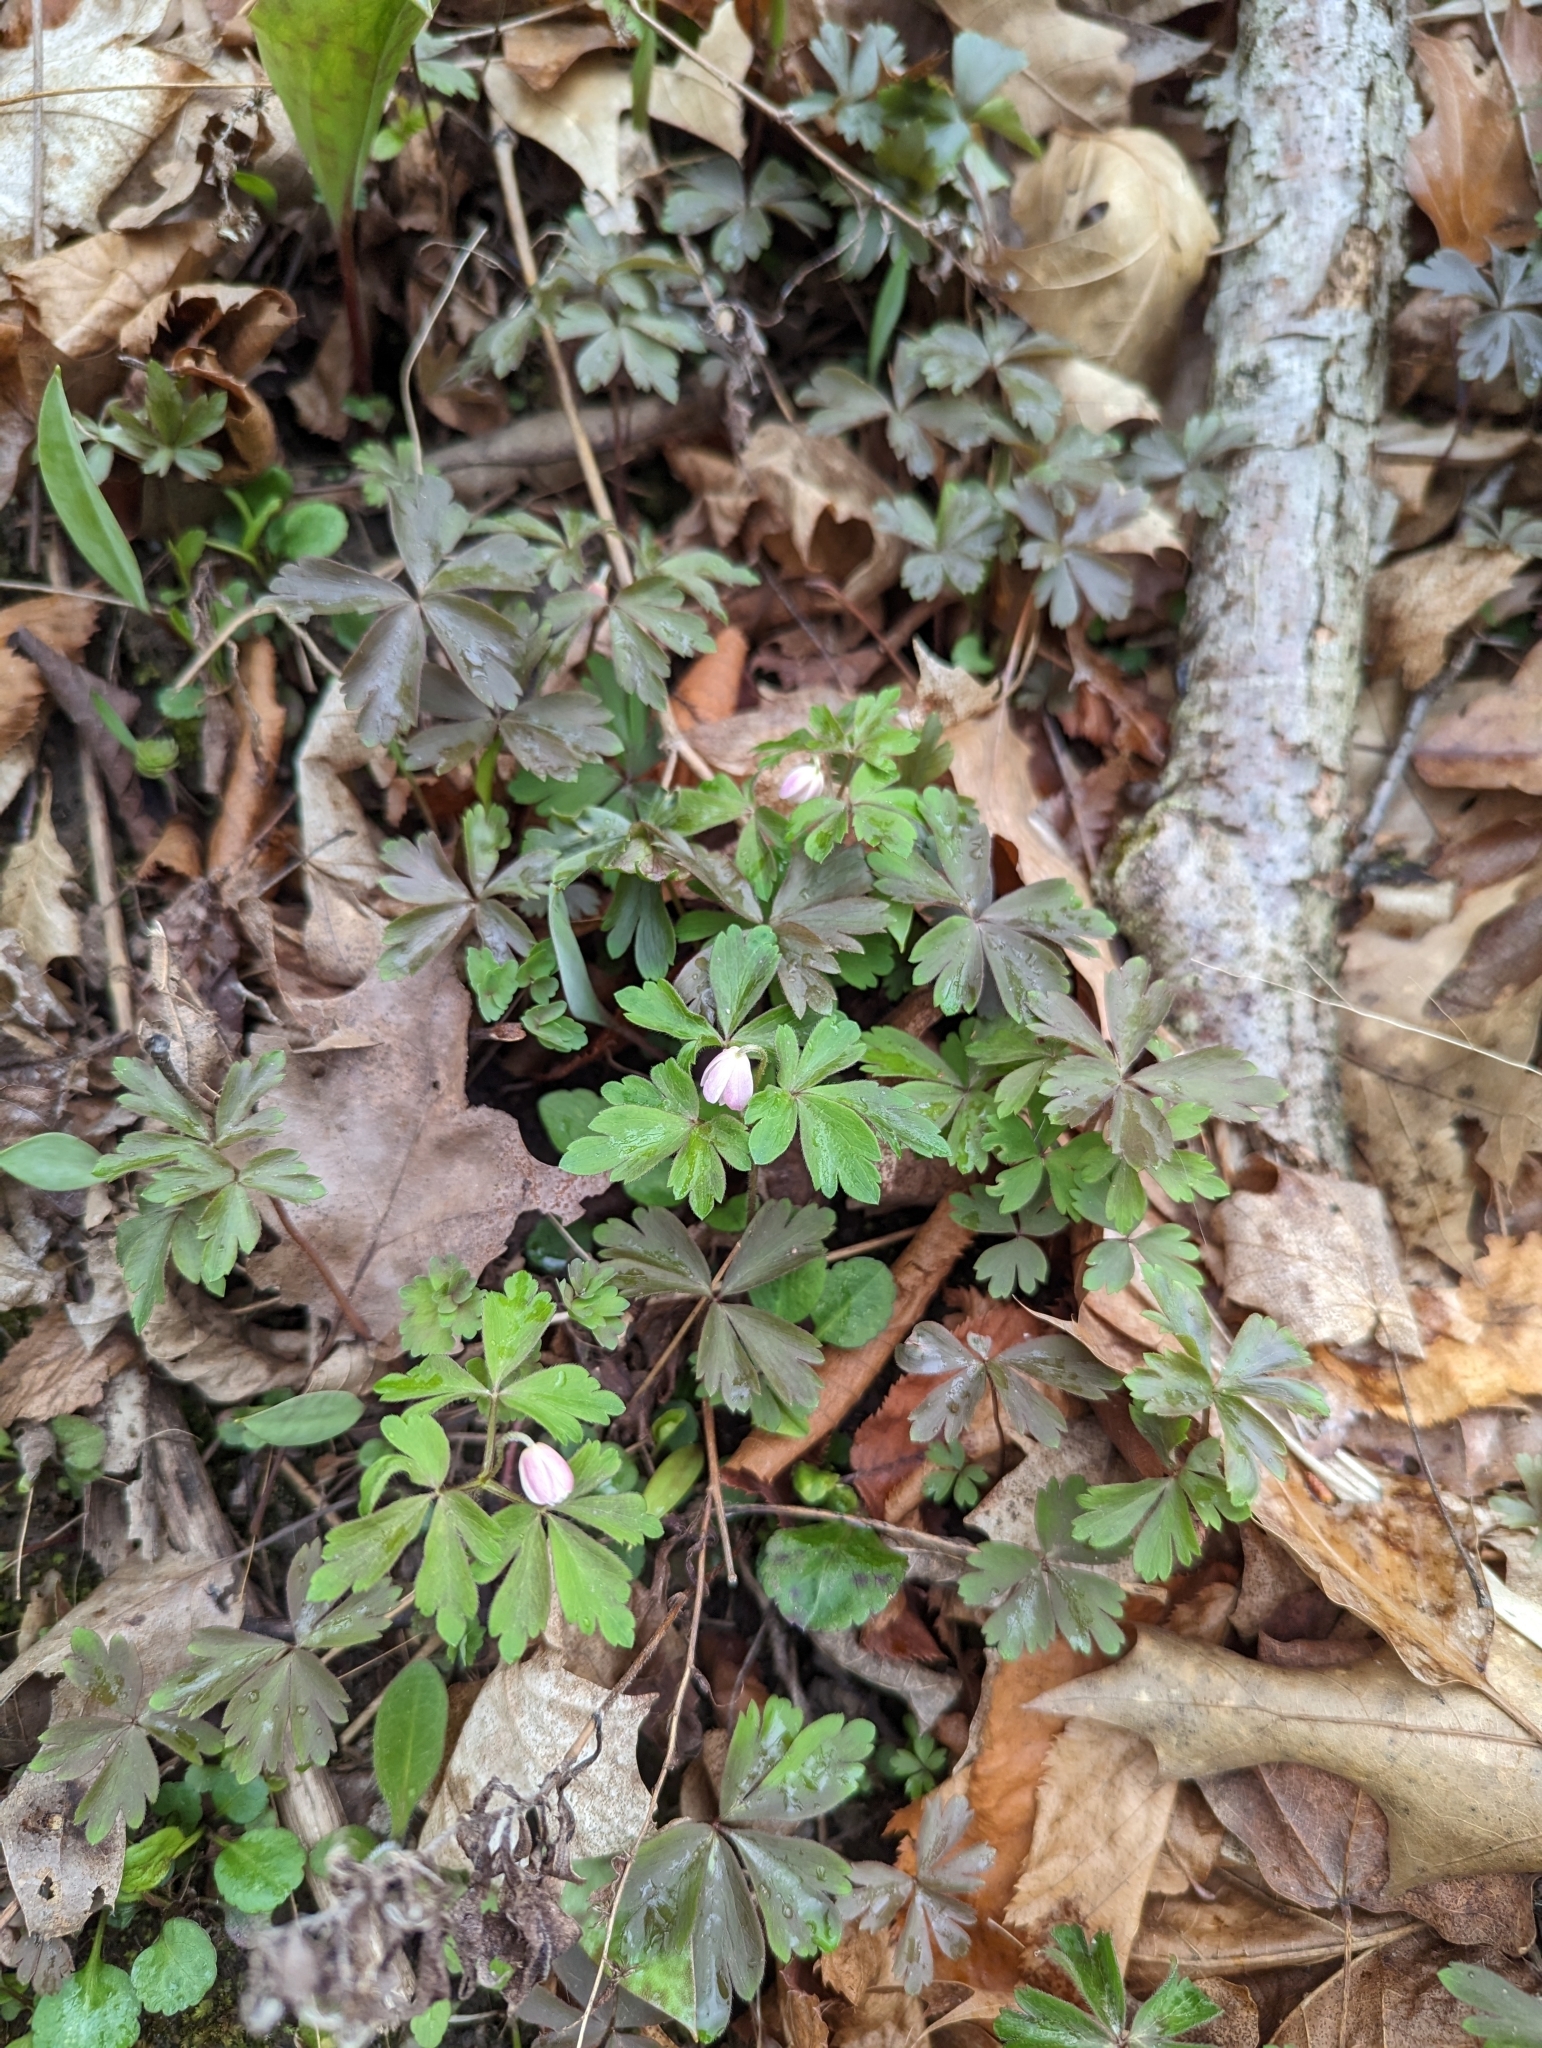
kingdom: Plantae
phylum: Tracheophyta
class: Magnoliopsida
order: Ranunculales
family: Ranunculaceae
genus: Anemone
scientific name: Anemone quinquefolia
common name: Wood anemone
